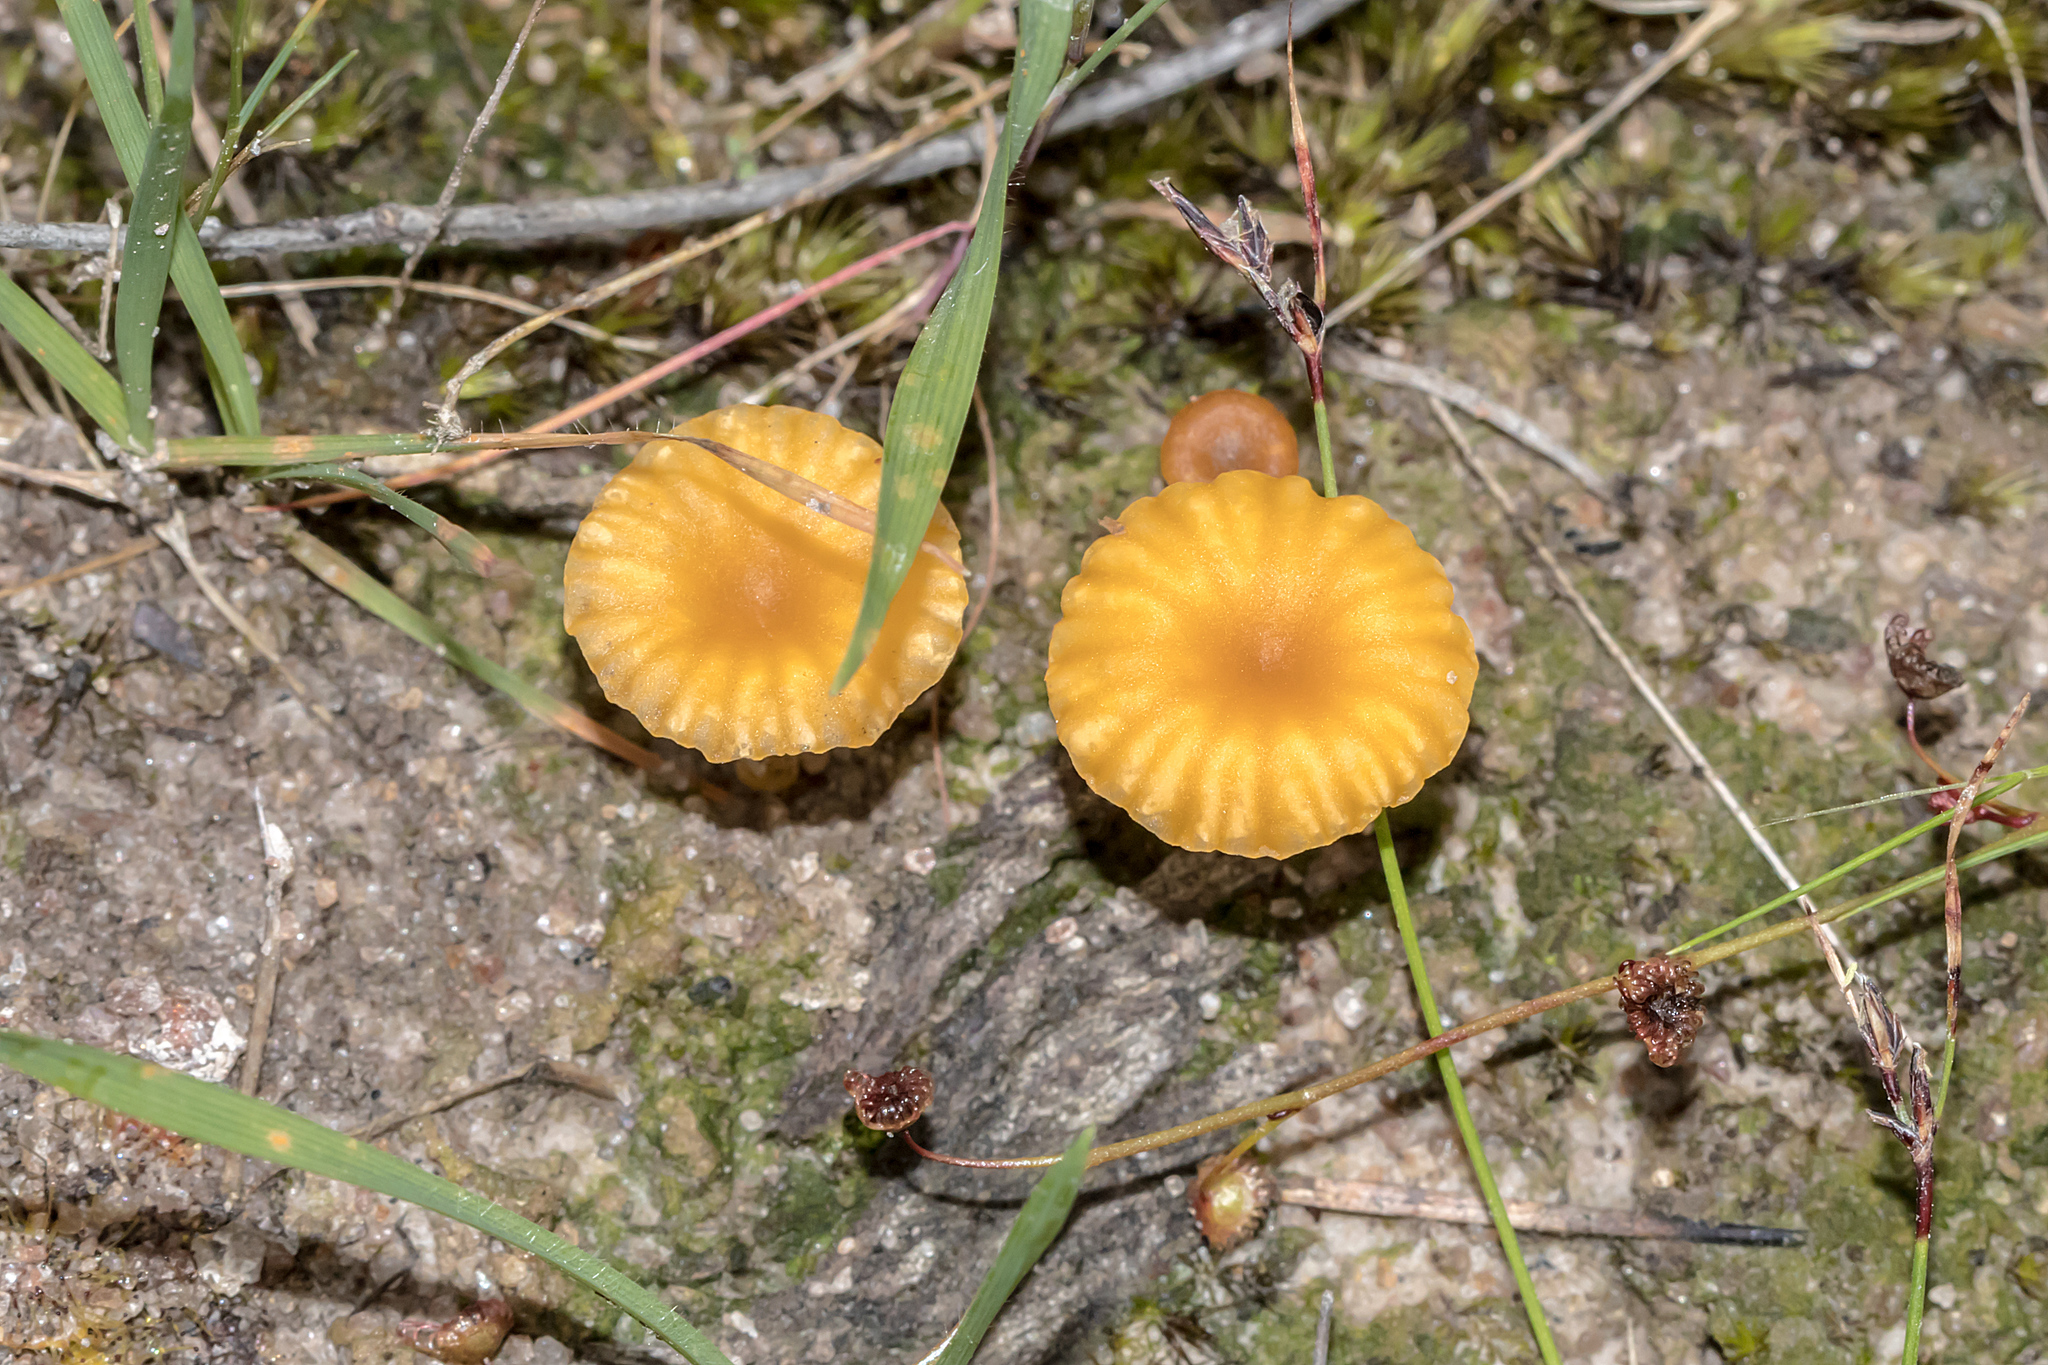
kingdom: Fungi
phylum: Basidiomycota
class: Agaricomycetes
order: Agaricales
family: Hygrophoraceae
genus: Lichenomphalia
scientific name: Lichenomphalia chromacea
